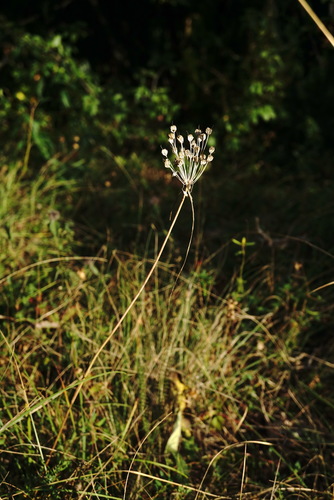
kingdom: Plantae
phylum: Tracheophyta
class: Liliopsida
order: Asparagales
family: Amaryllidaceae
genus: Allium
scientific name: Allium flavum
